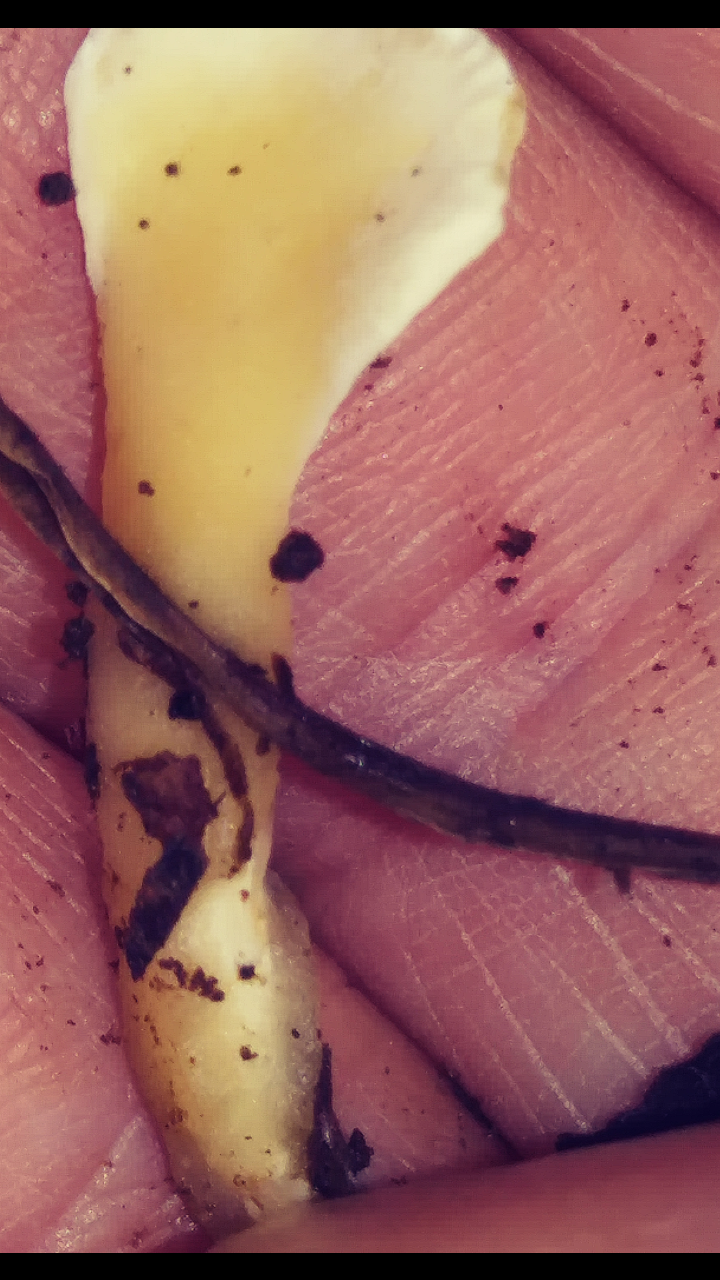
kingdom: Fungi
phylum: Basidiomycota
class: Agaricomycetes
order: Polyporales
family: Steccherinaceae
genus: Loweomyces
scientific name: Loweomyces fractipes
